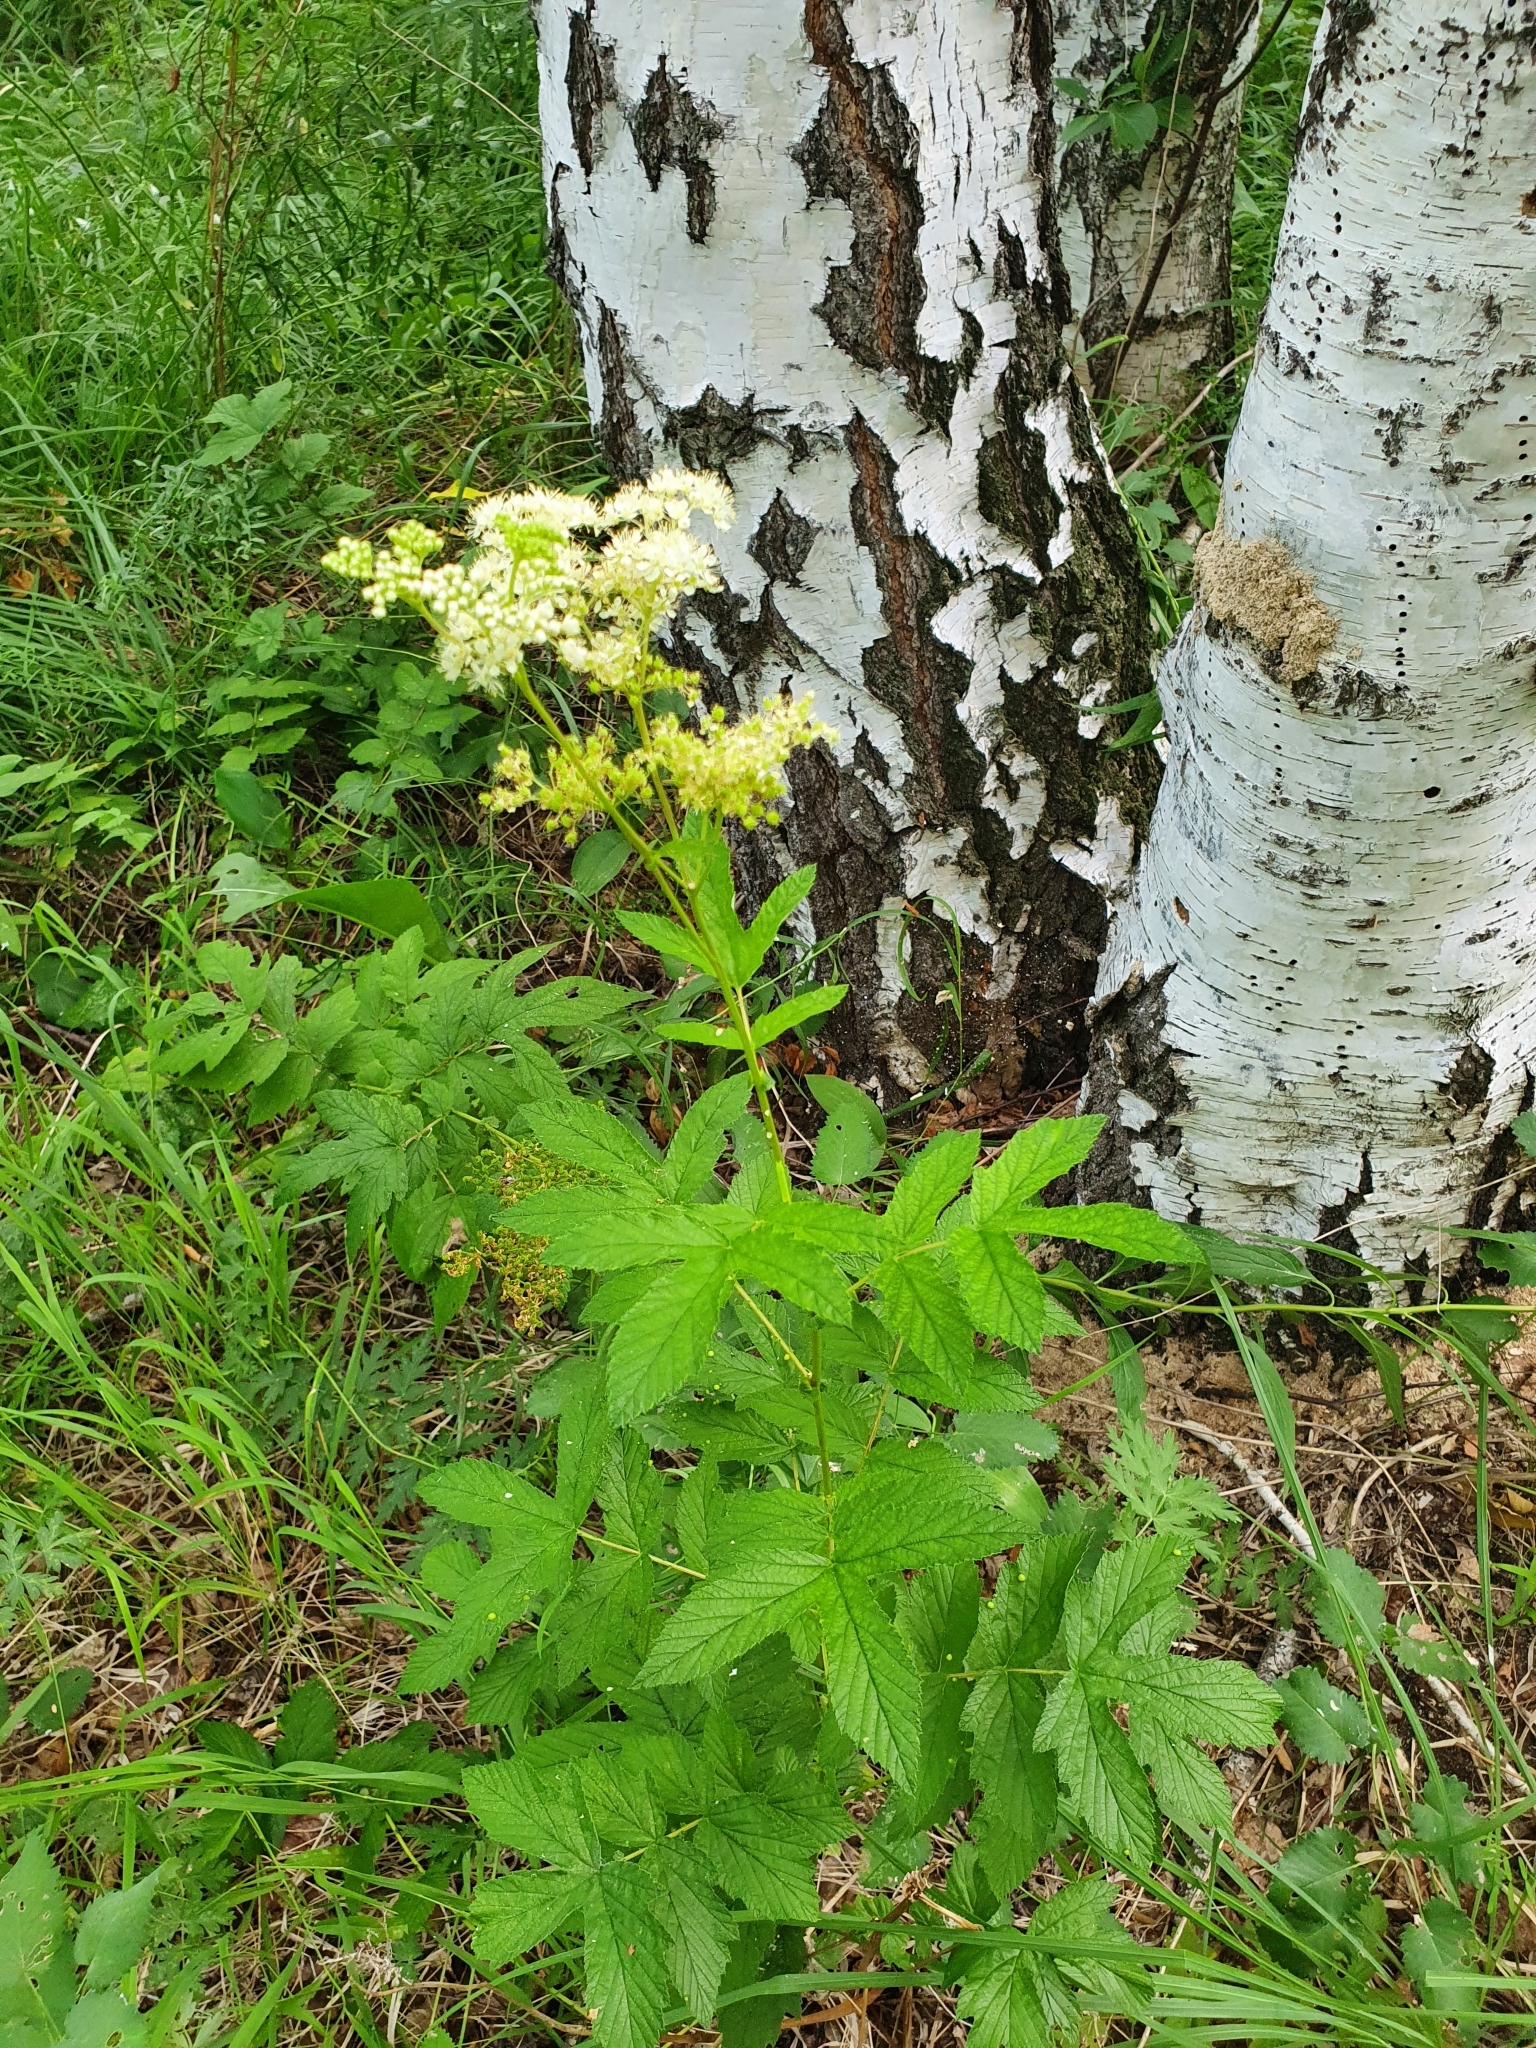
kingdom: Plantae
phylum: Tracheophyta
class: Magnoliopsida
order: Rosales
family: Rosaceae
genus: Filipendula
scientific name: Filipendula ulmaria
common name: Meadowsweet
